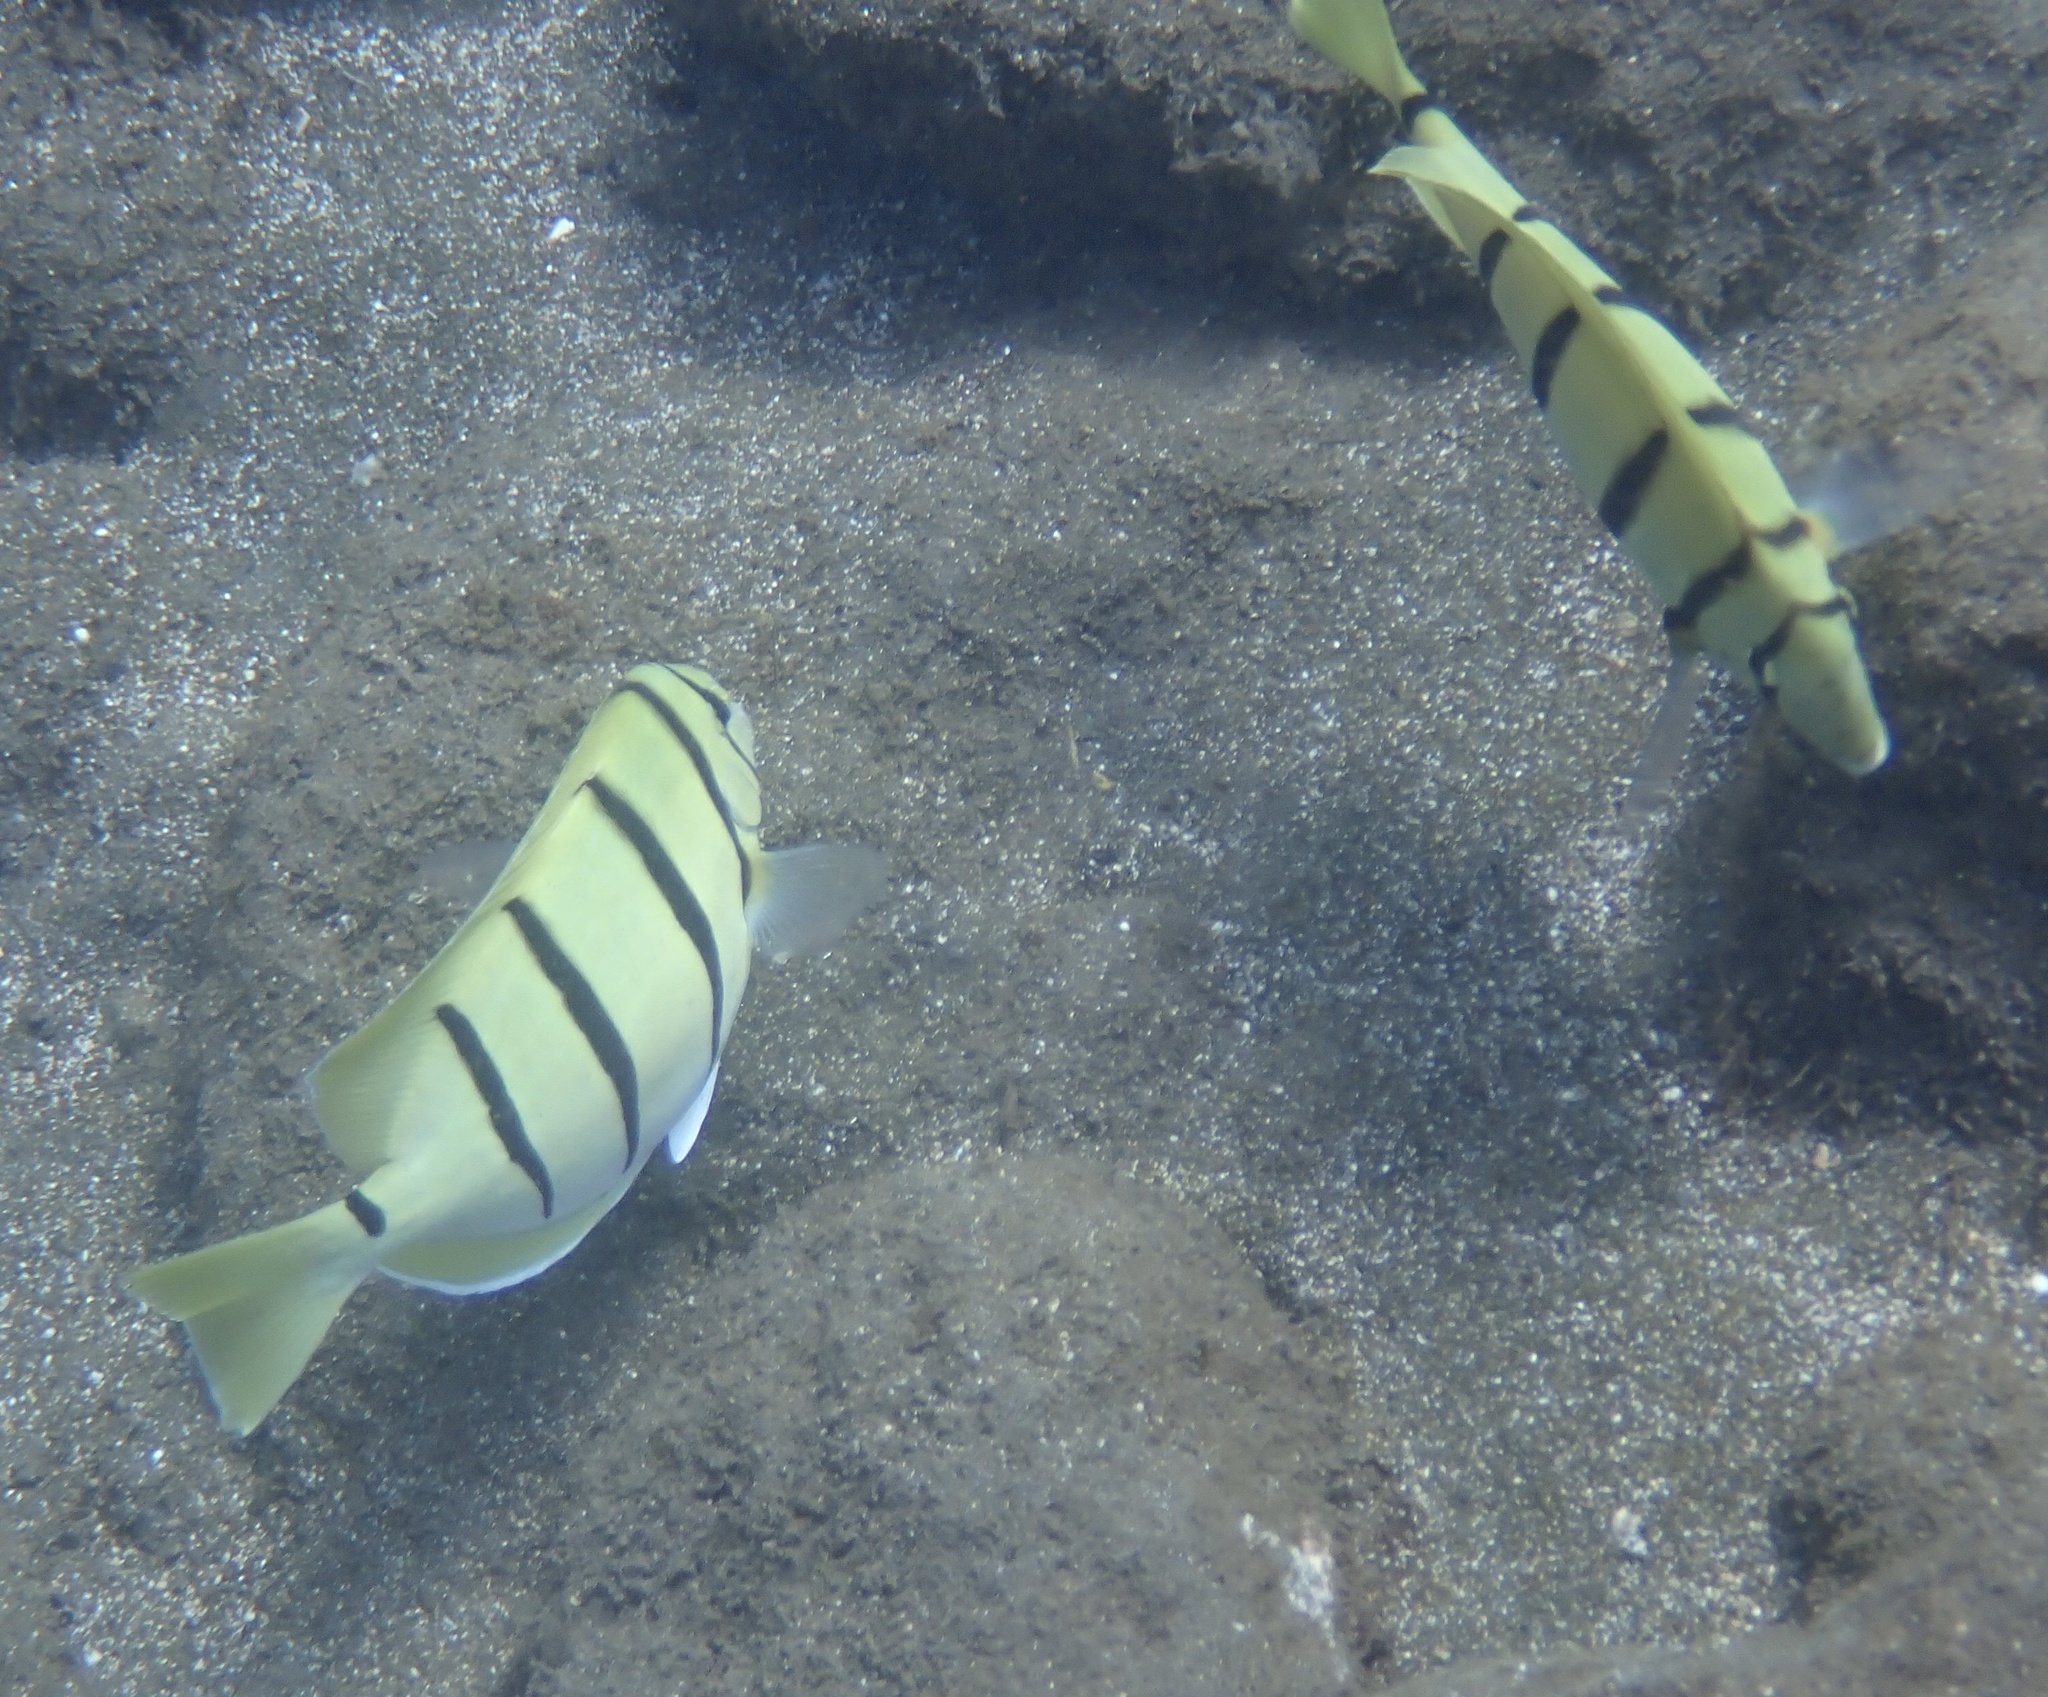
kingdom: Animalia
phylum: Chordata
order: Perciformes
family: Acanthuridae
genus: Acanthurus
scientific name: Acanthurus triostegus
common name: Convict surgeonfish
